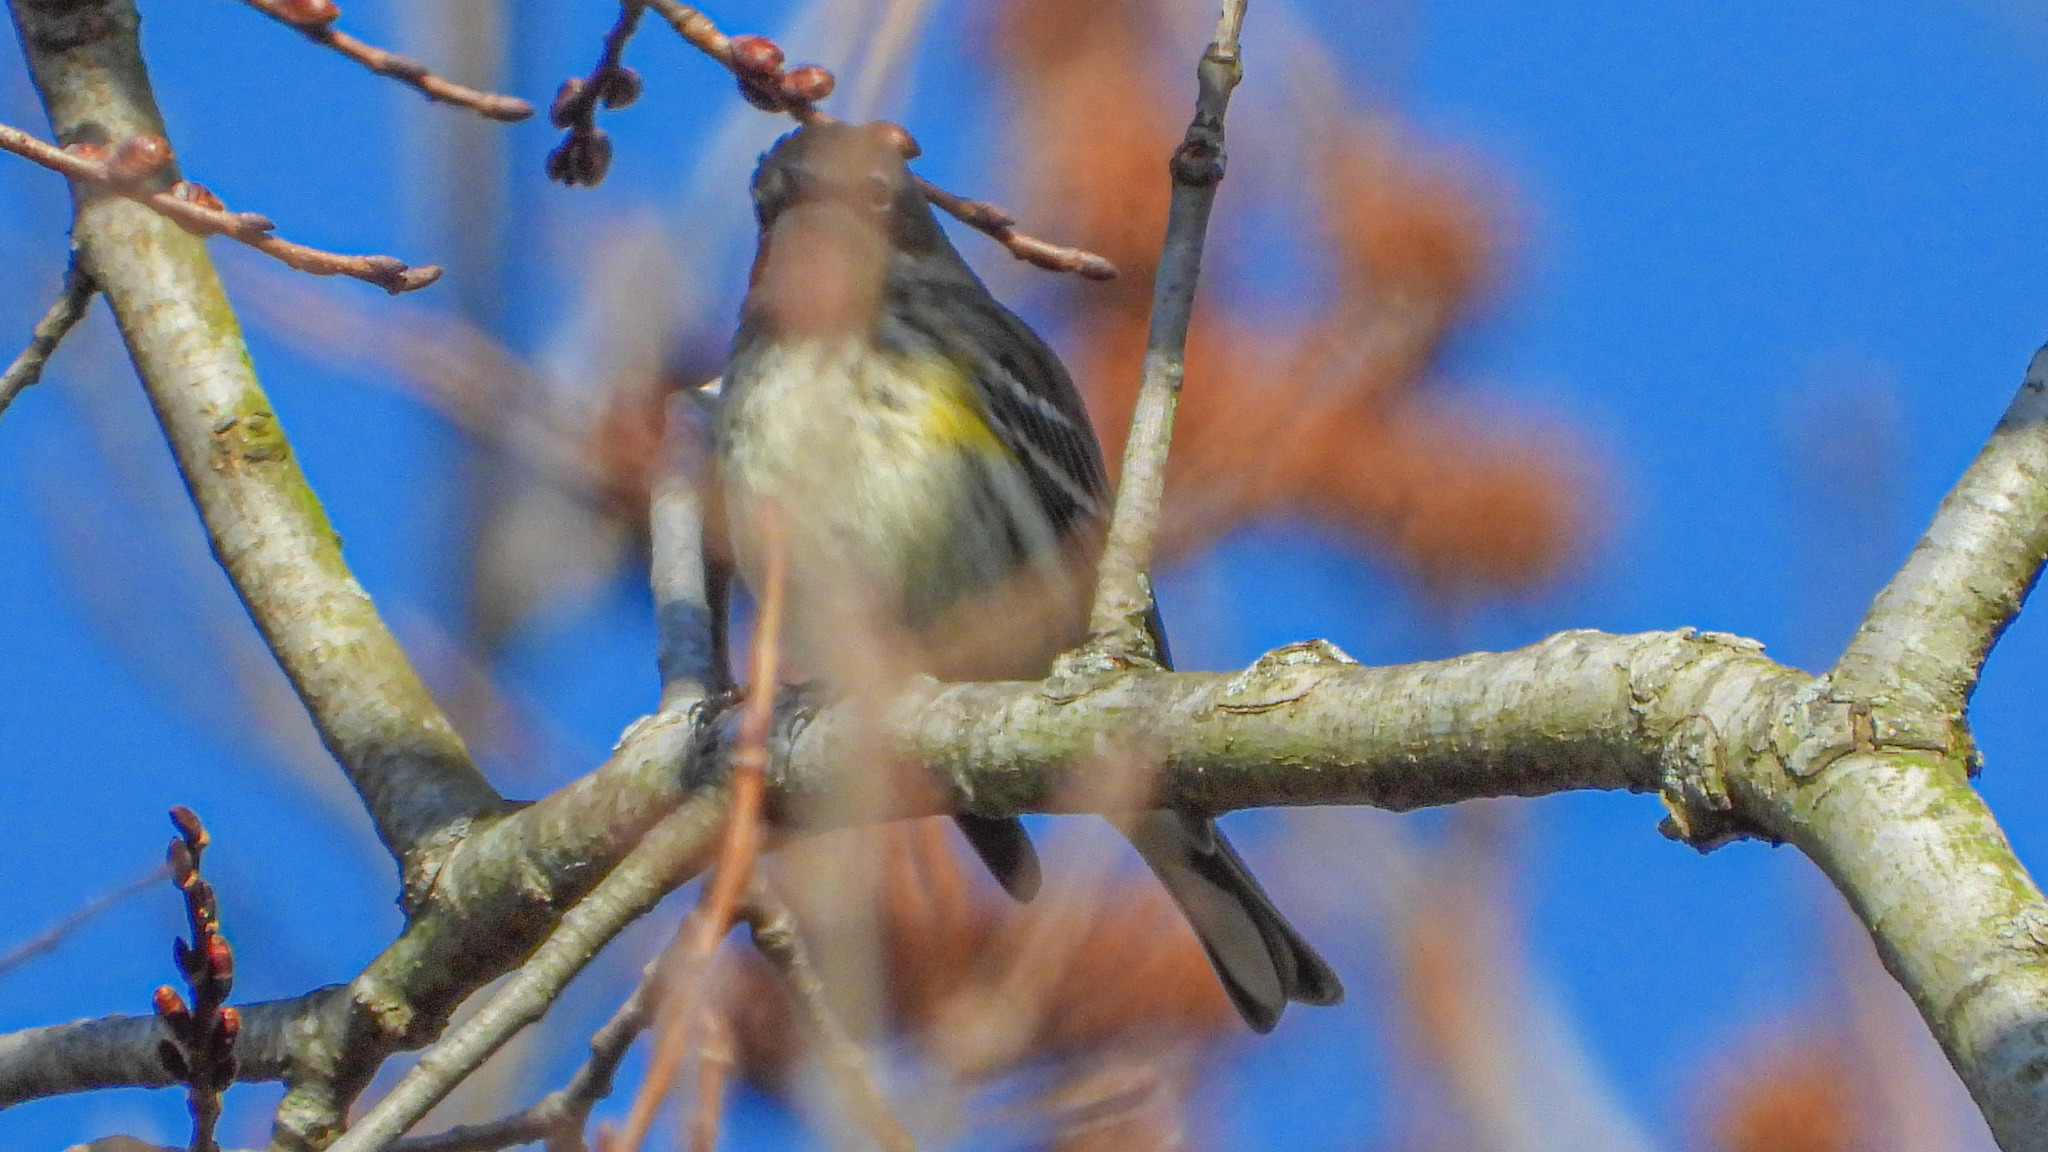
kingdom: Animalia
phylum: Chordata
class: Aves
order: Passeriformes
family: Parulidae
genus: Setophaga
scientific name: Setophaga coronata
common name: Myrtle warbler
